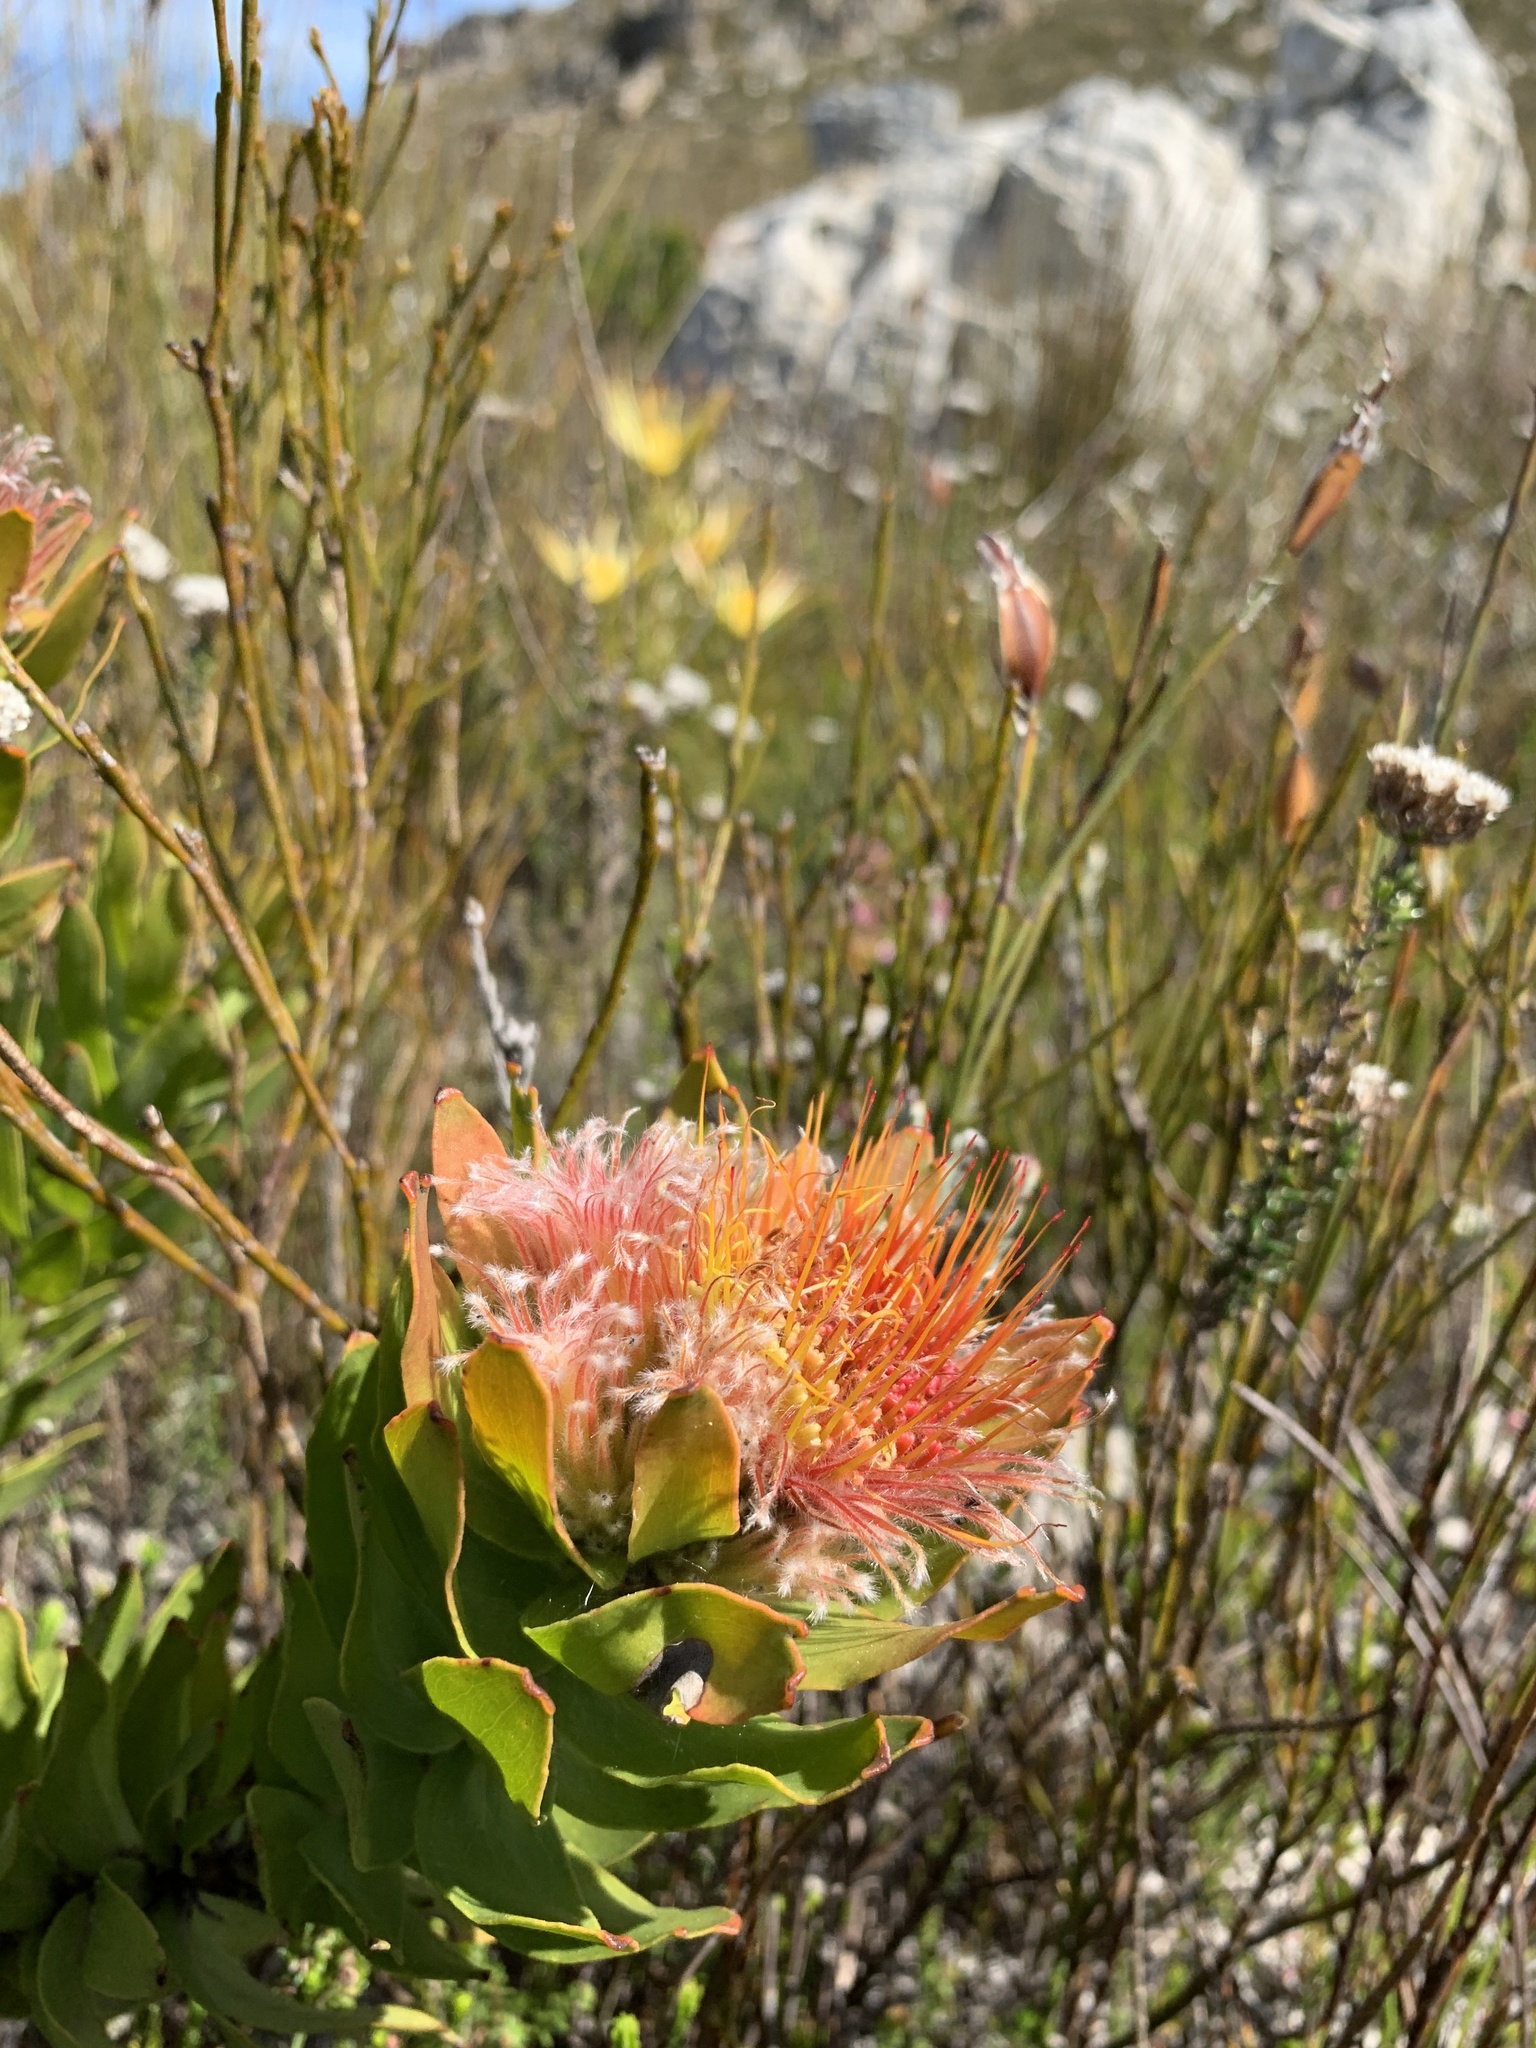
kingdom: Plantae
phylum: Tracheophyta
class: Magnoliopsida
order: Proteales
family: Proteaceae
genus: Leucospermum
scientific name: Leucospermum oleifolium
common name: Matches
